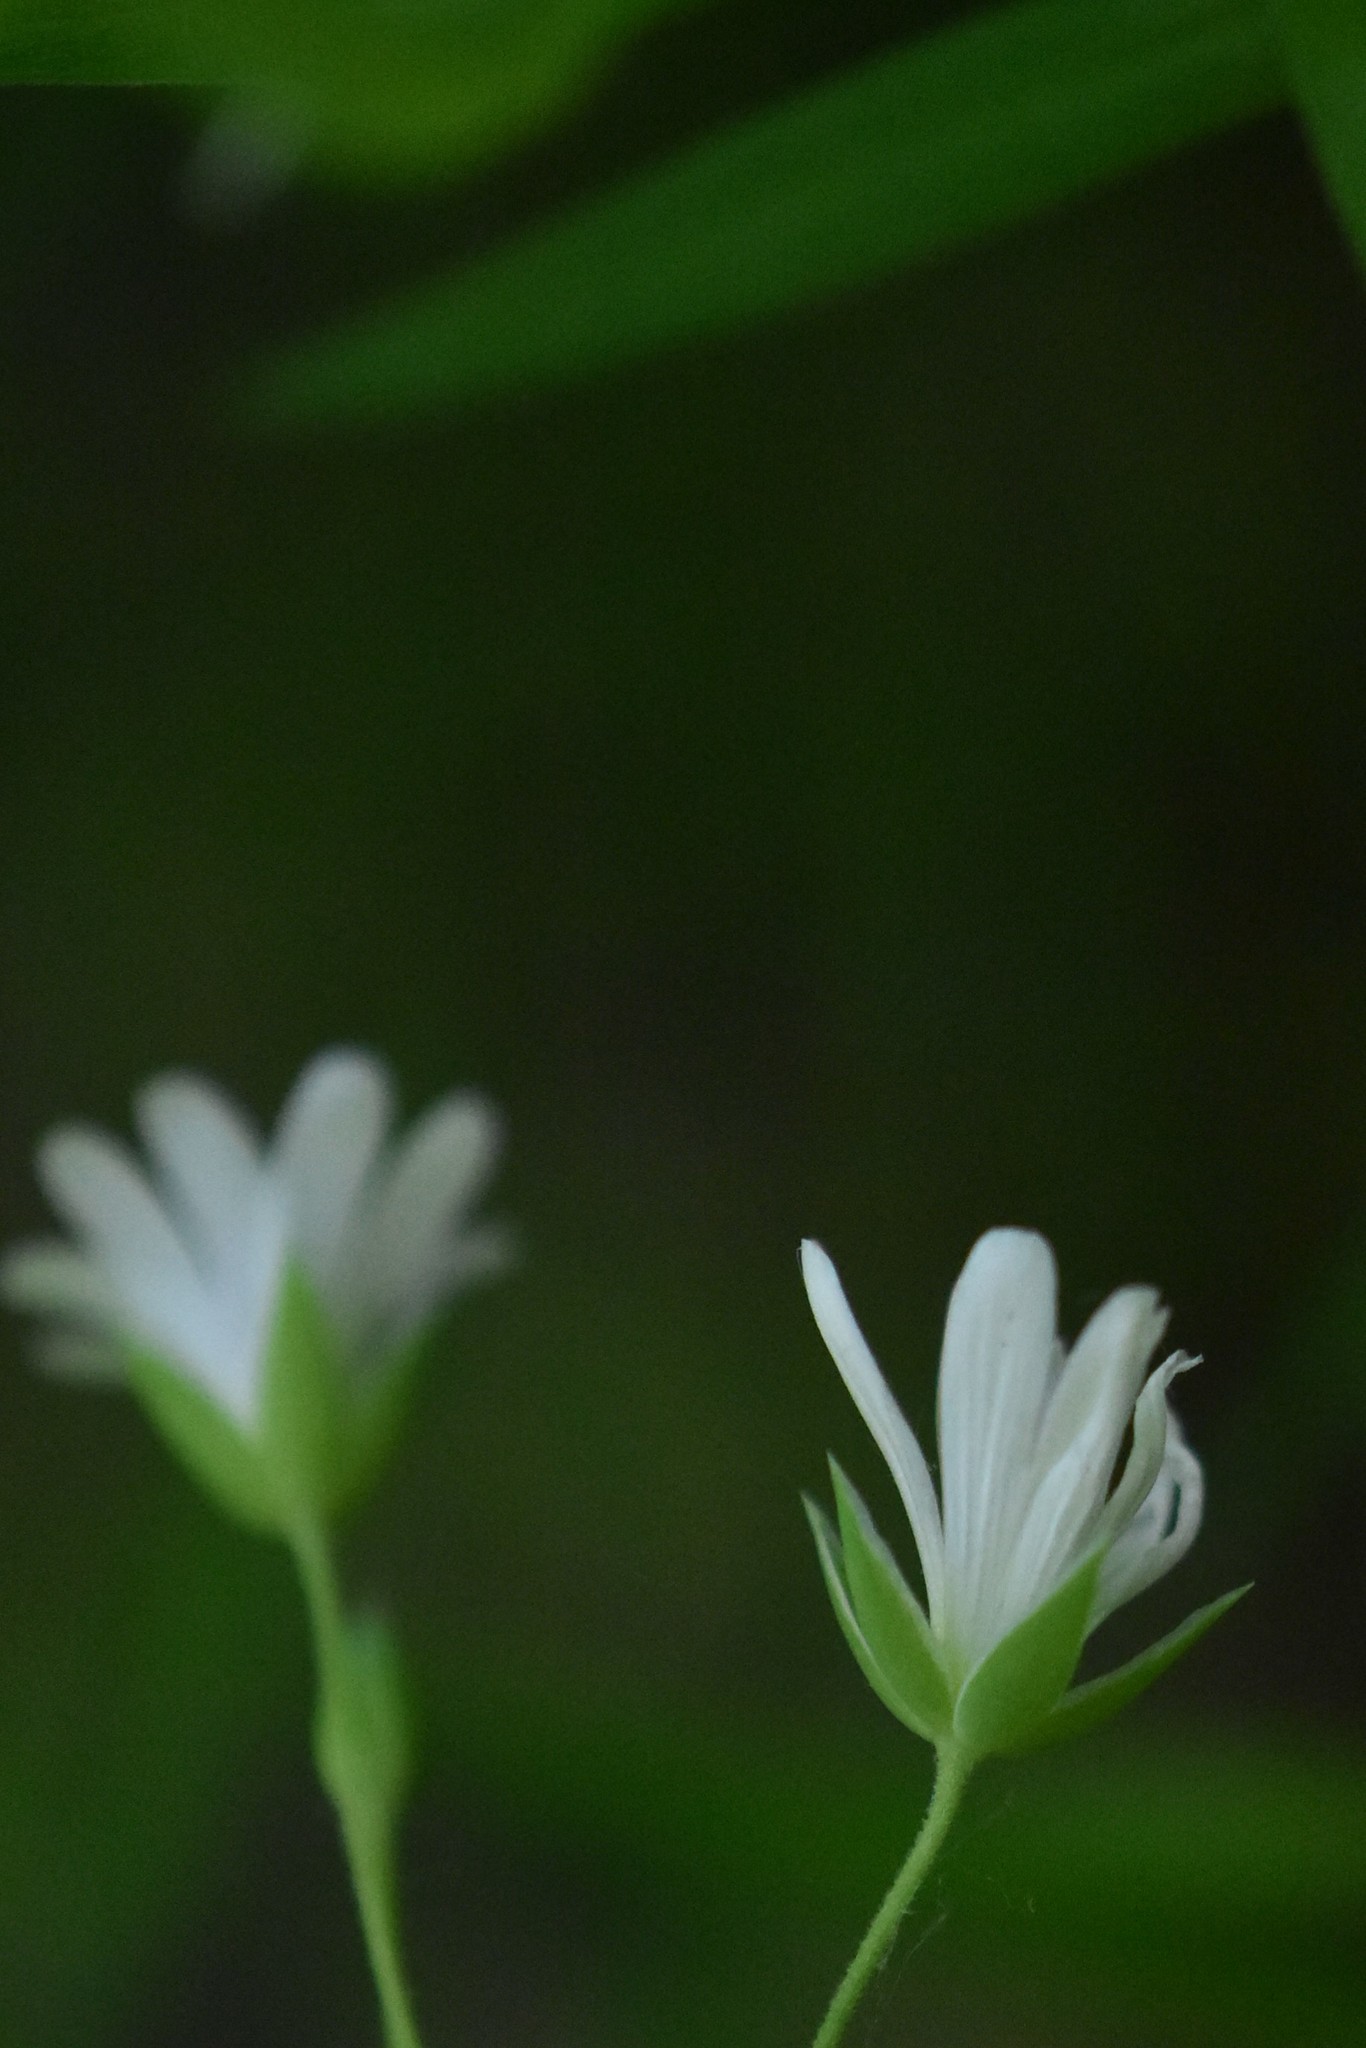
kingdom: Plantae
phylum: Tracheophyta
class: Magnoliopsida
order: Caryophyllales
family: Caryophyllaceae
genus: Rabelera
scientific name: Rabelera holostea
